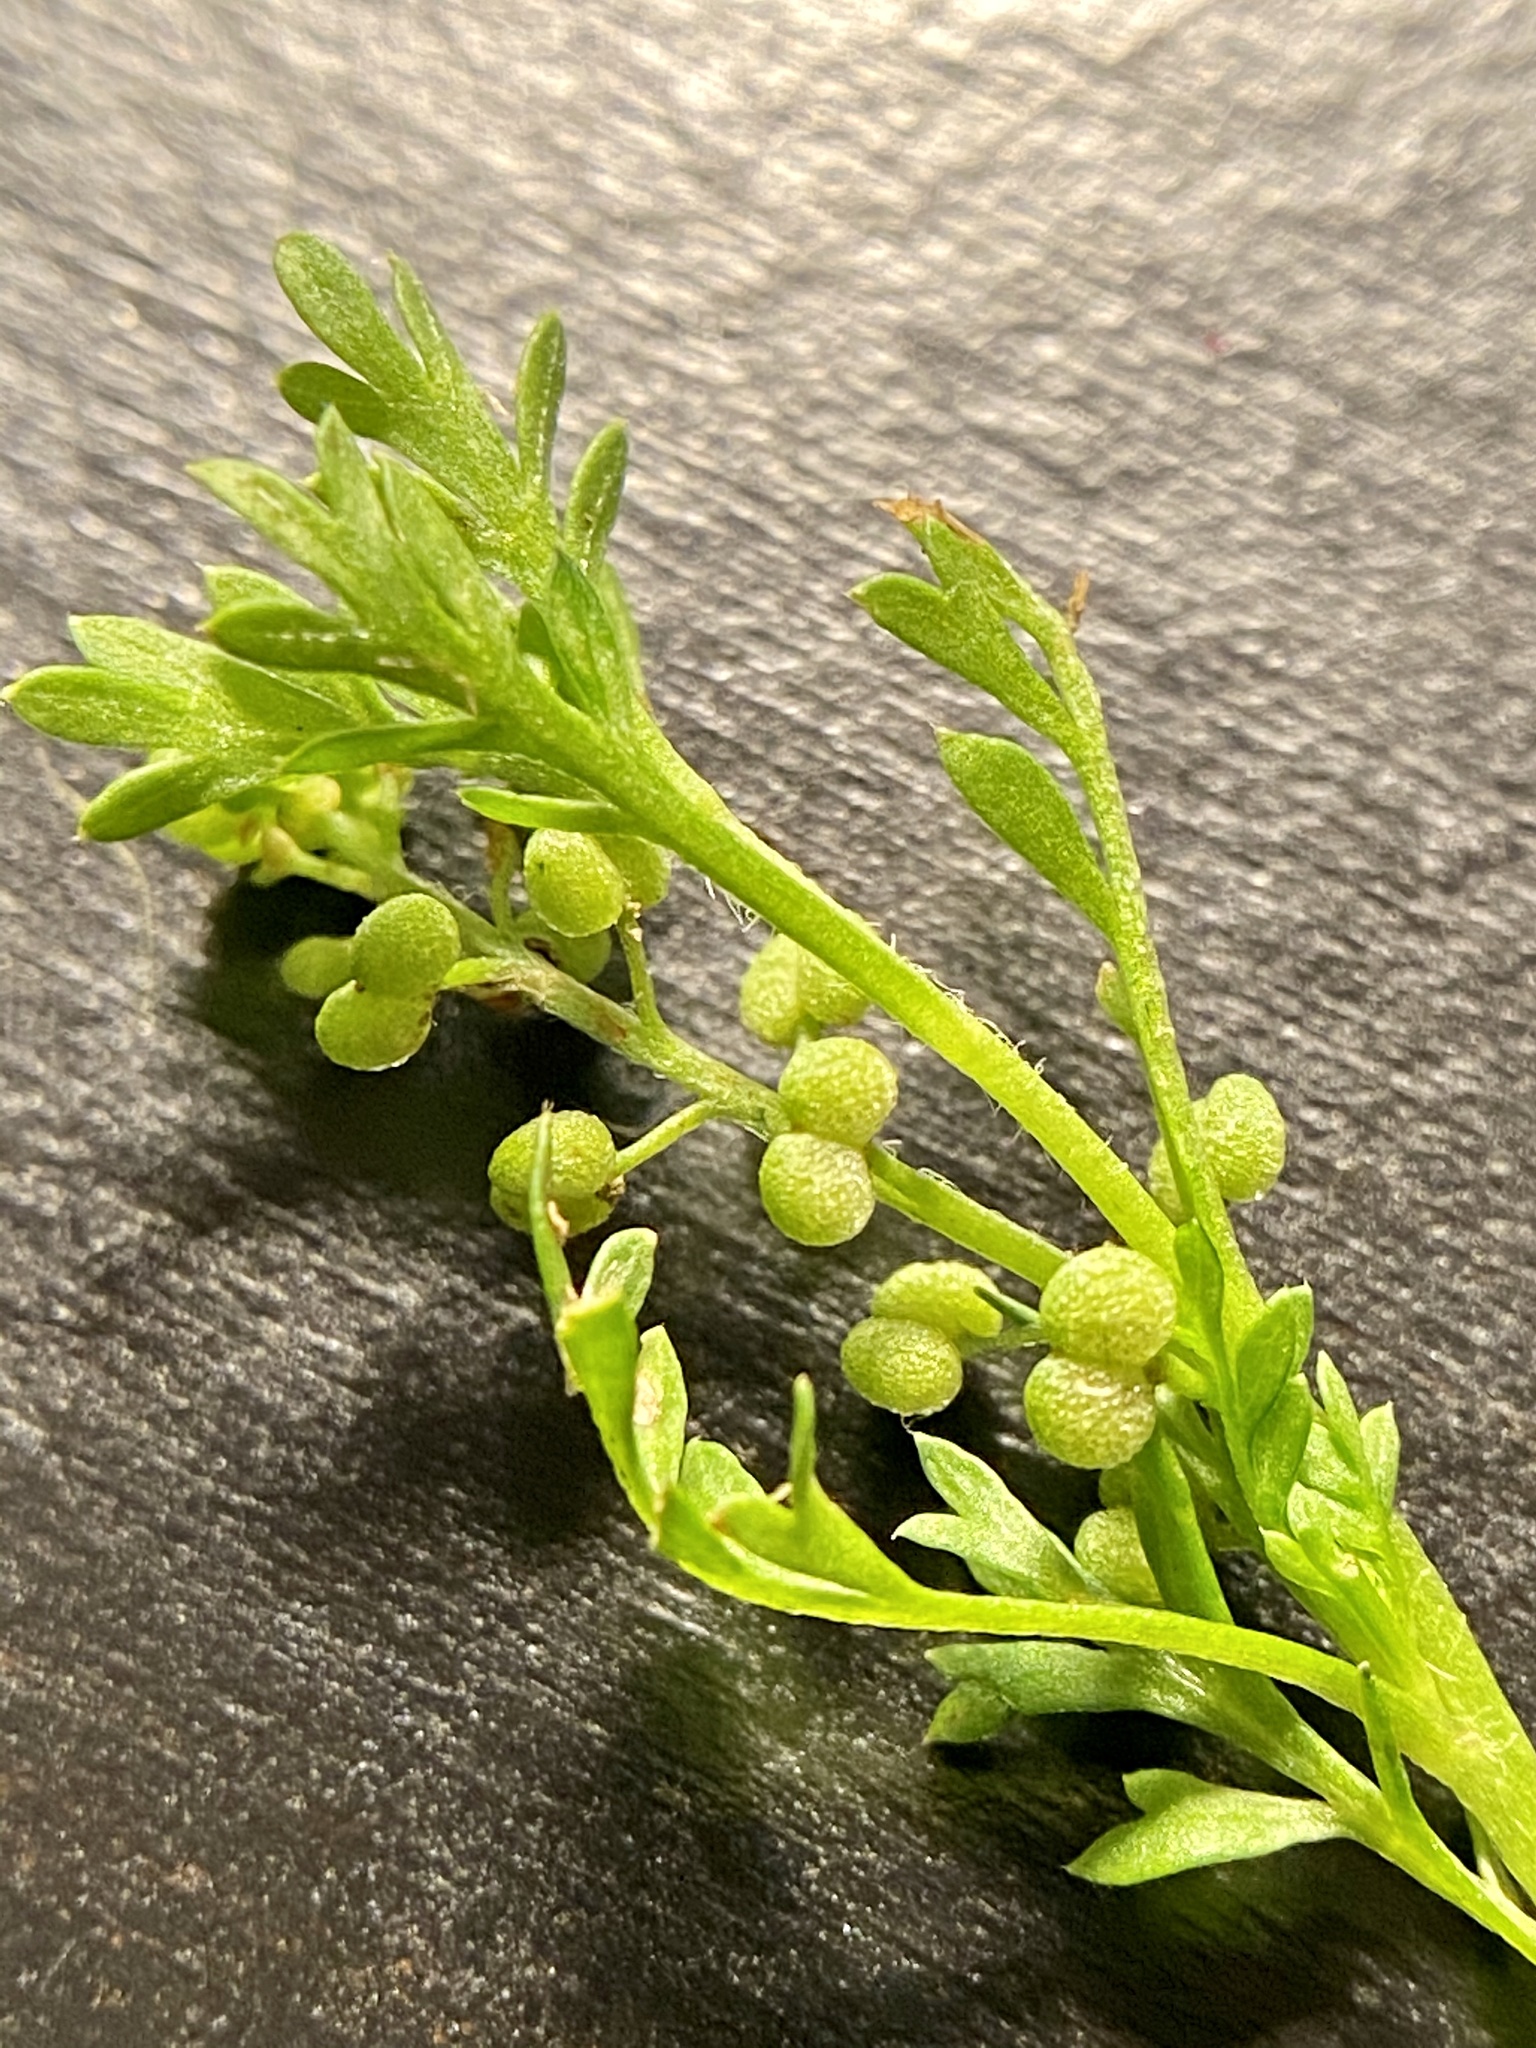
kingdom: Plantae
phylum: Tracheophyta
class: Magnoliopsida
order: Brassicales
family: Brassicaceae
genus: Lepidium
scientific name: Lepidium didymum
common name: Lesser swinecress
